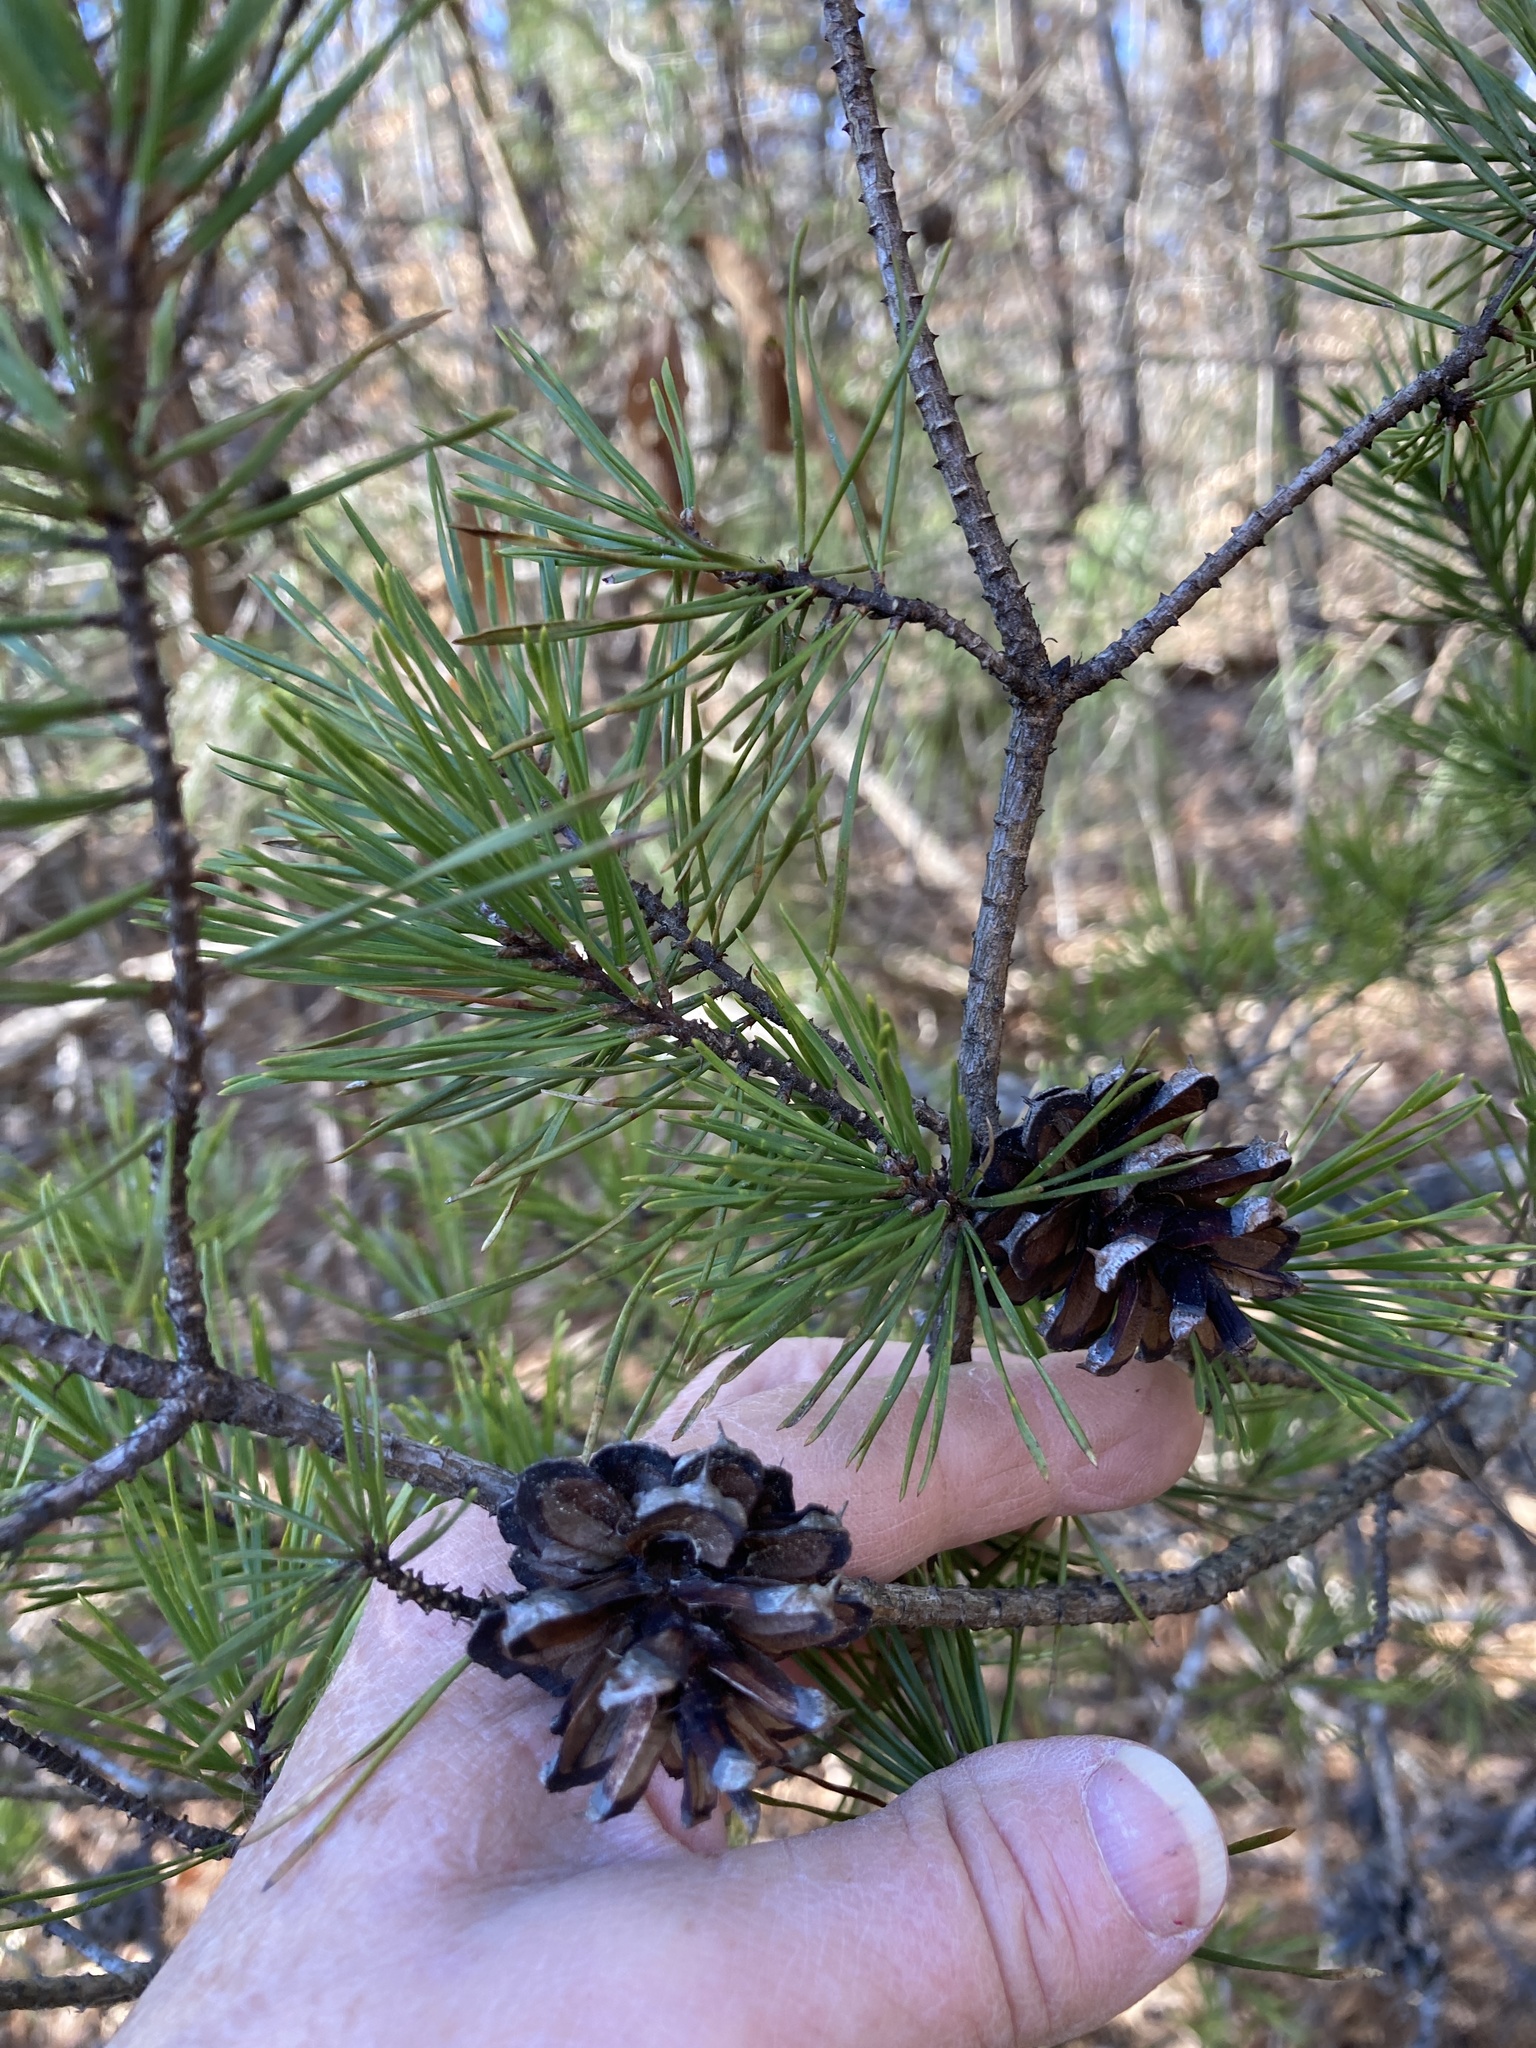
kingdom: Plantae
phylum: Tracheophyta
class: Pinopsida
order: Pinales
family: Pinaceae
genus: Pinus
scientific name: Pinus virginiana
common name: Scrub pine
